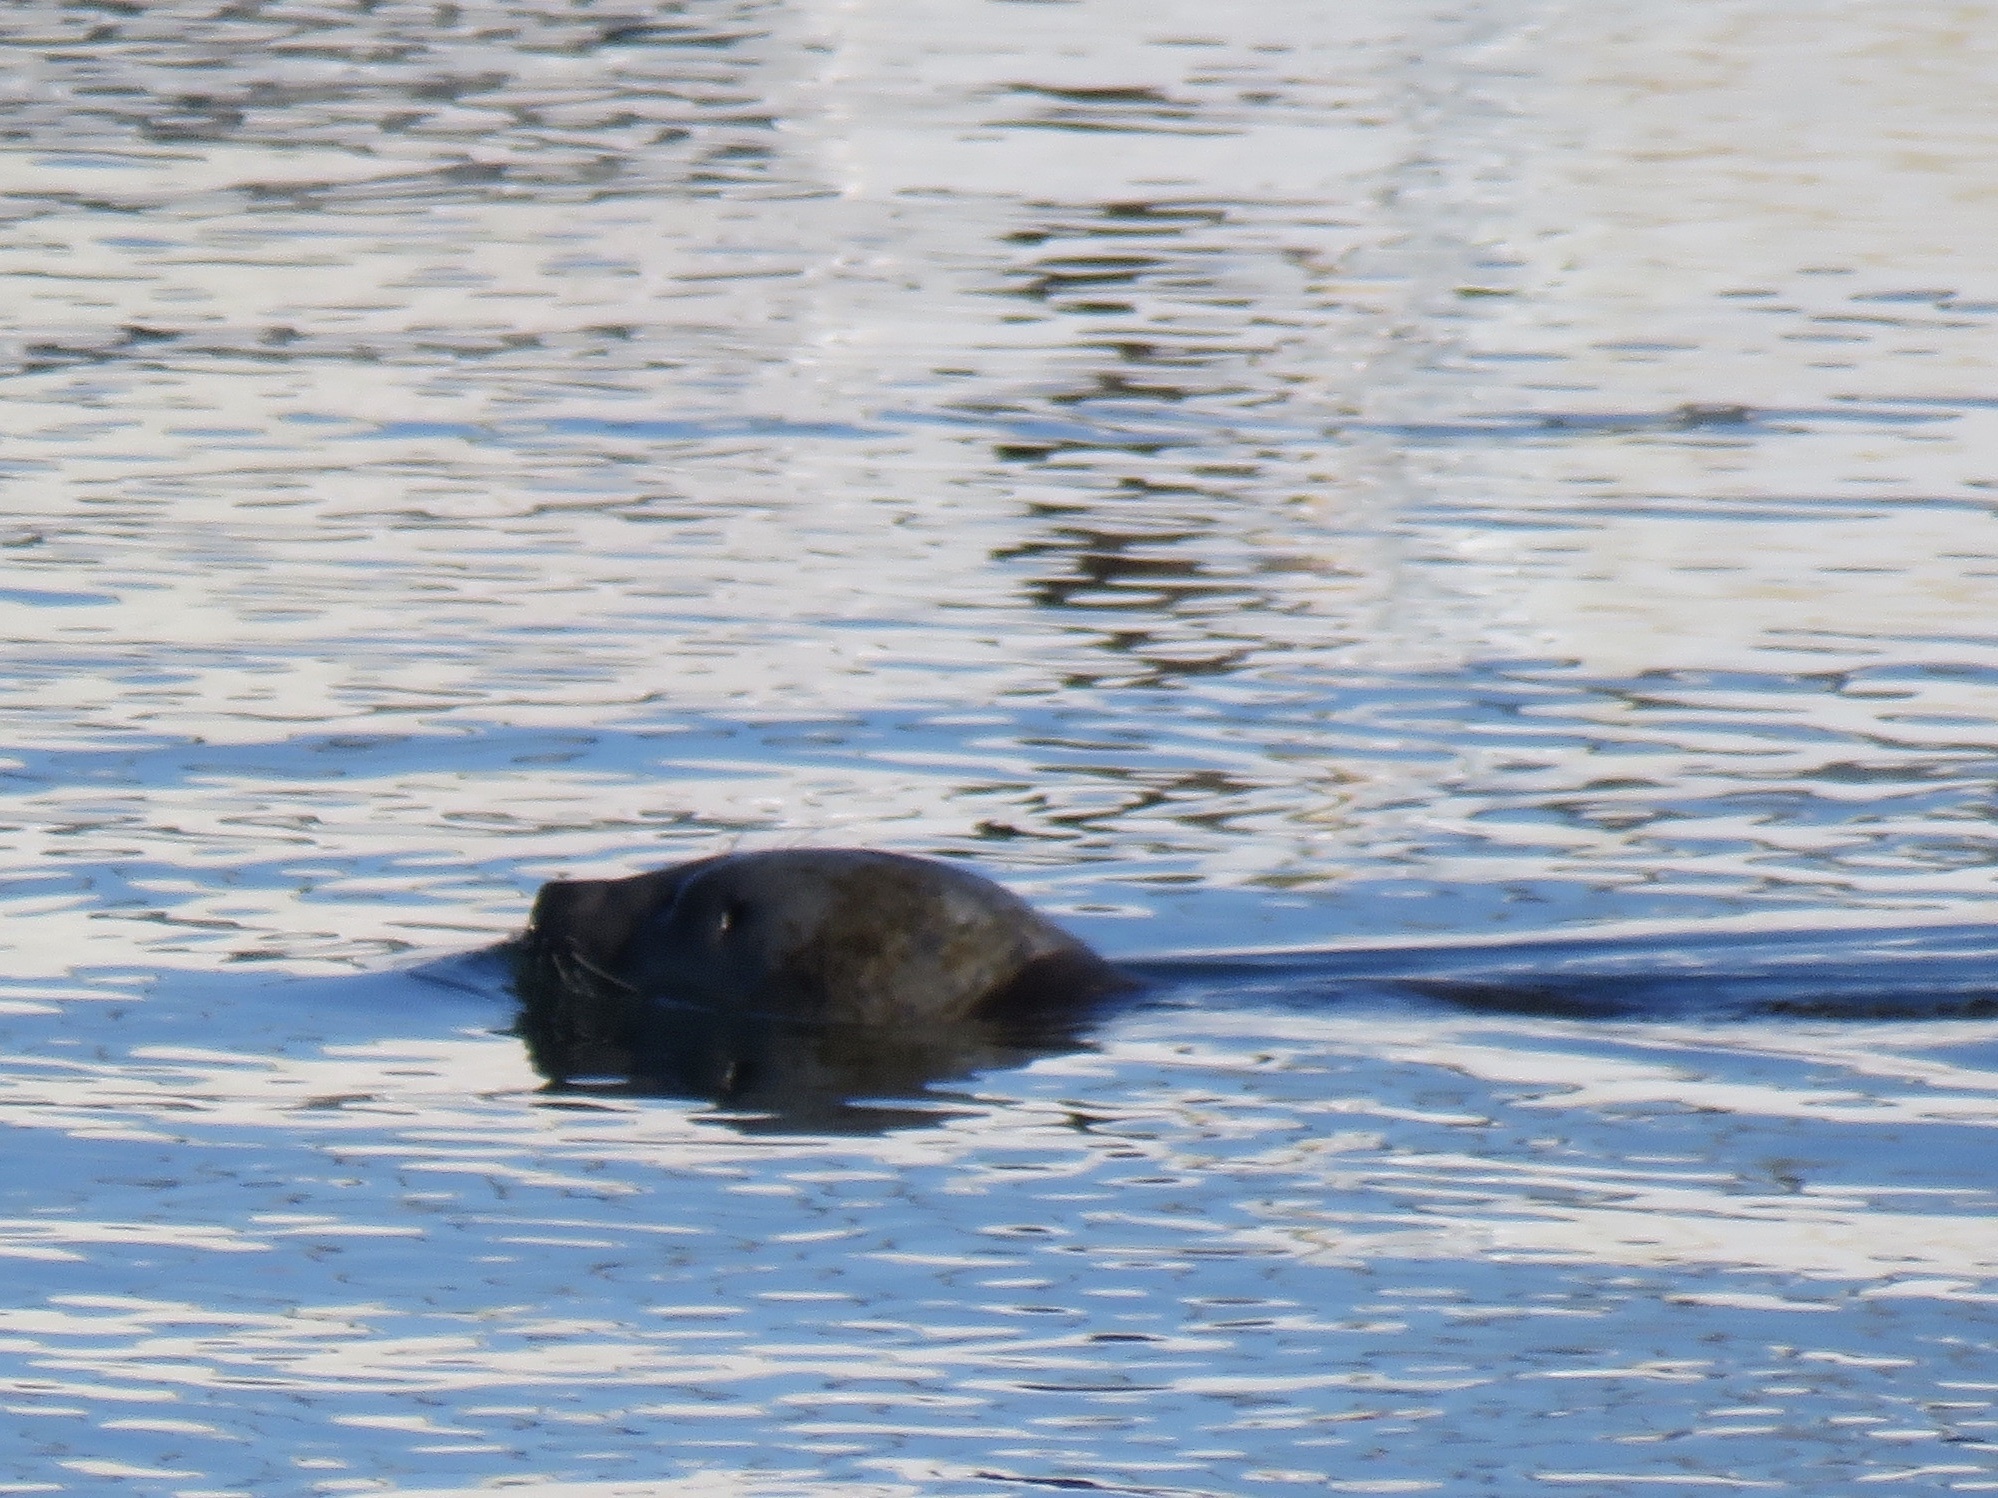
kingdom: Animalia
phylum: Chordata
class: Mammalia
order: Carnivora
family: Phocidae
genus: Phoca
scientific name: Phoca vitulina
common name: Harbor seal
